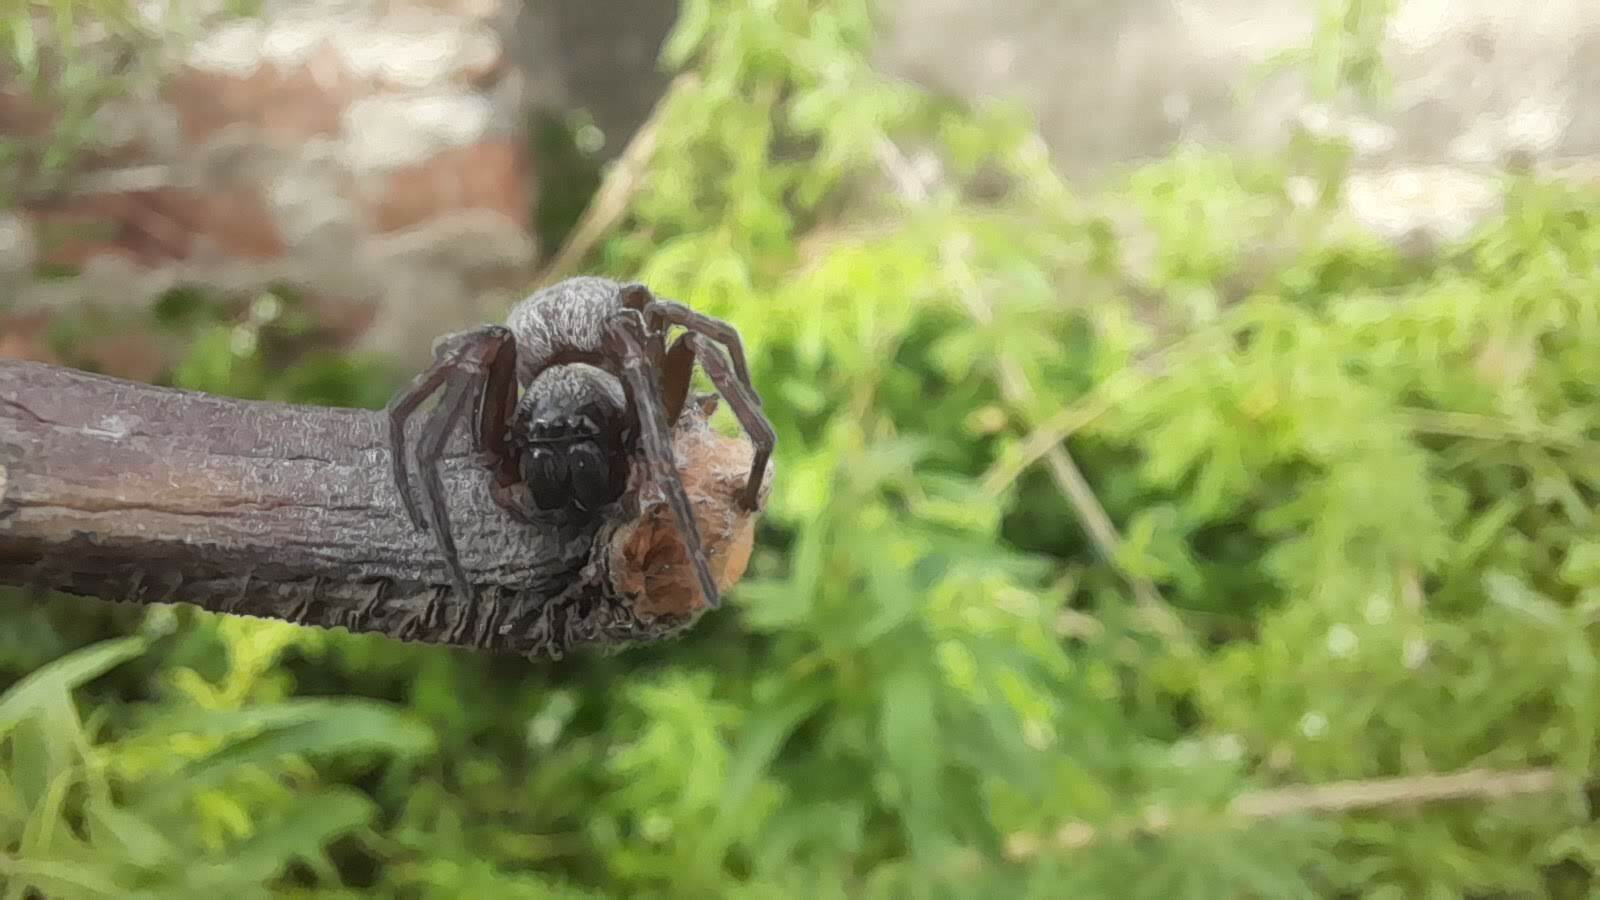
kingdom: Animalia
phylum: Arthropoda
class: Arachnida
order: Araneae
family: Desidae
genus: Badumna
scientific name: Badumna longinqua
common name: Gray house spider
